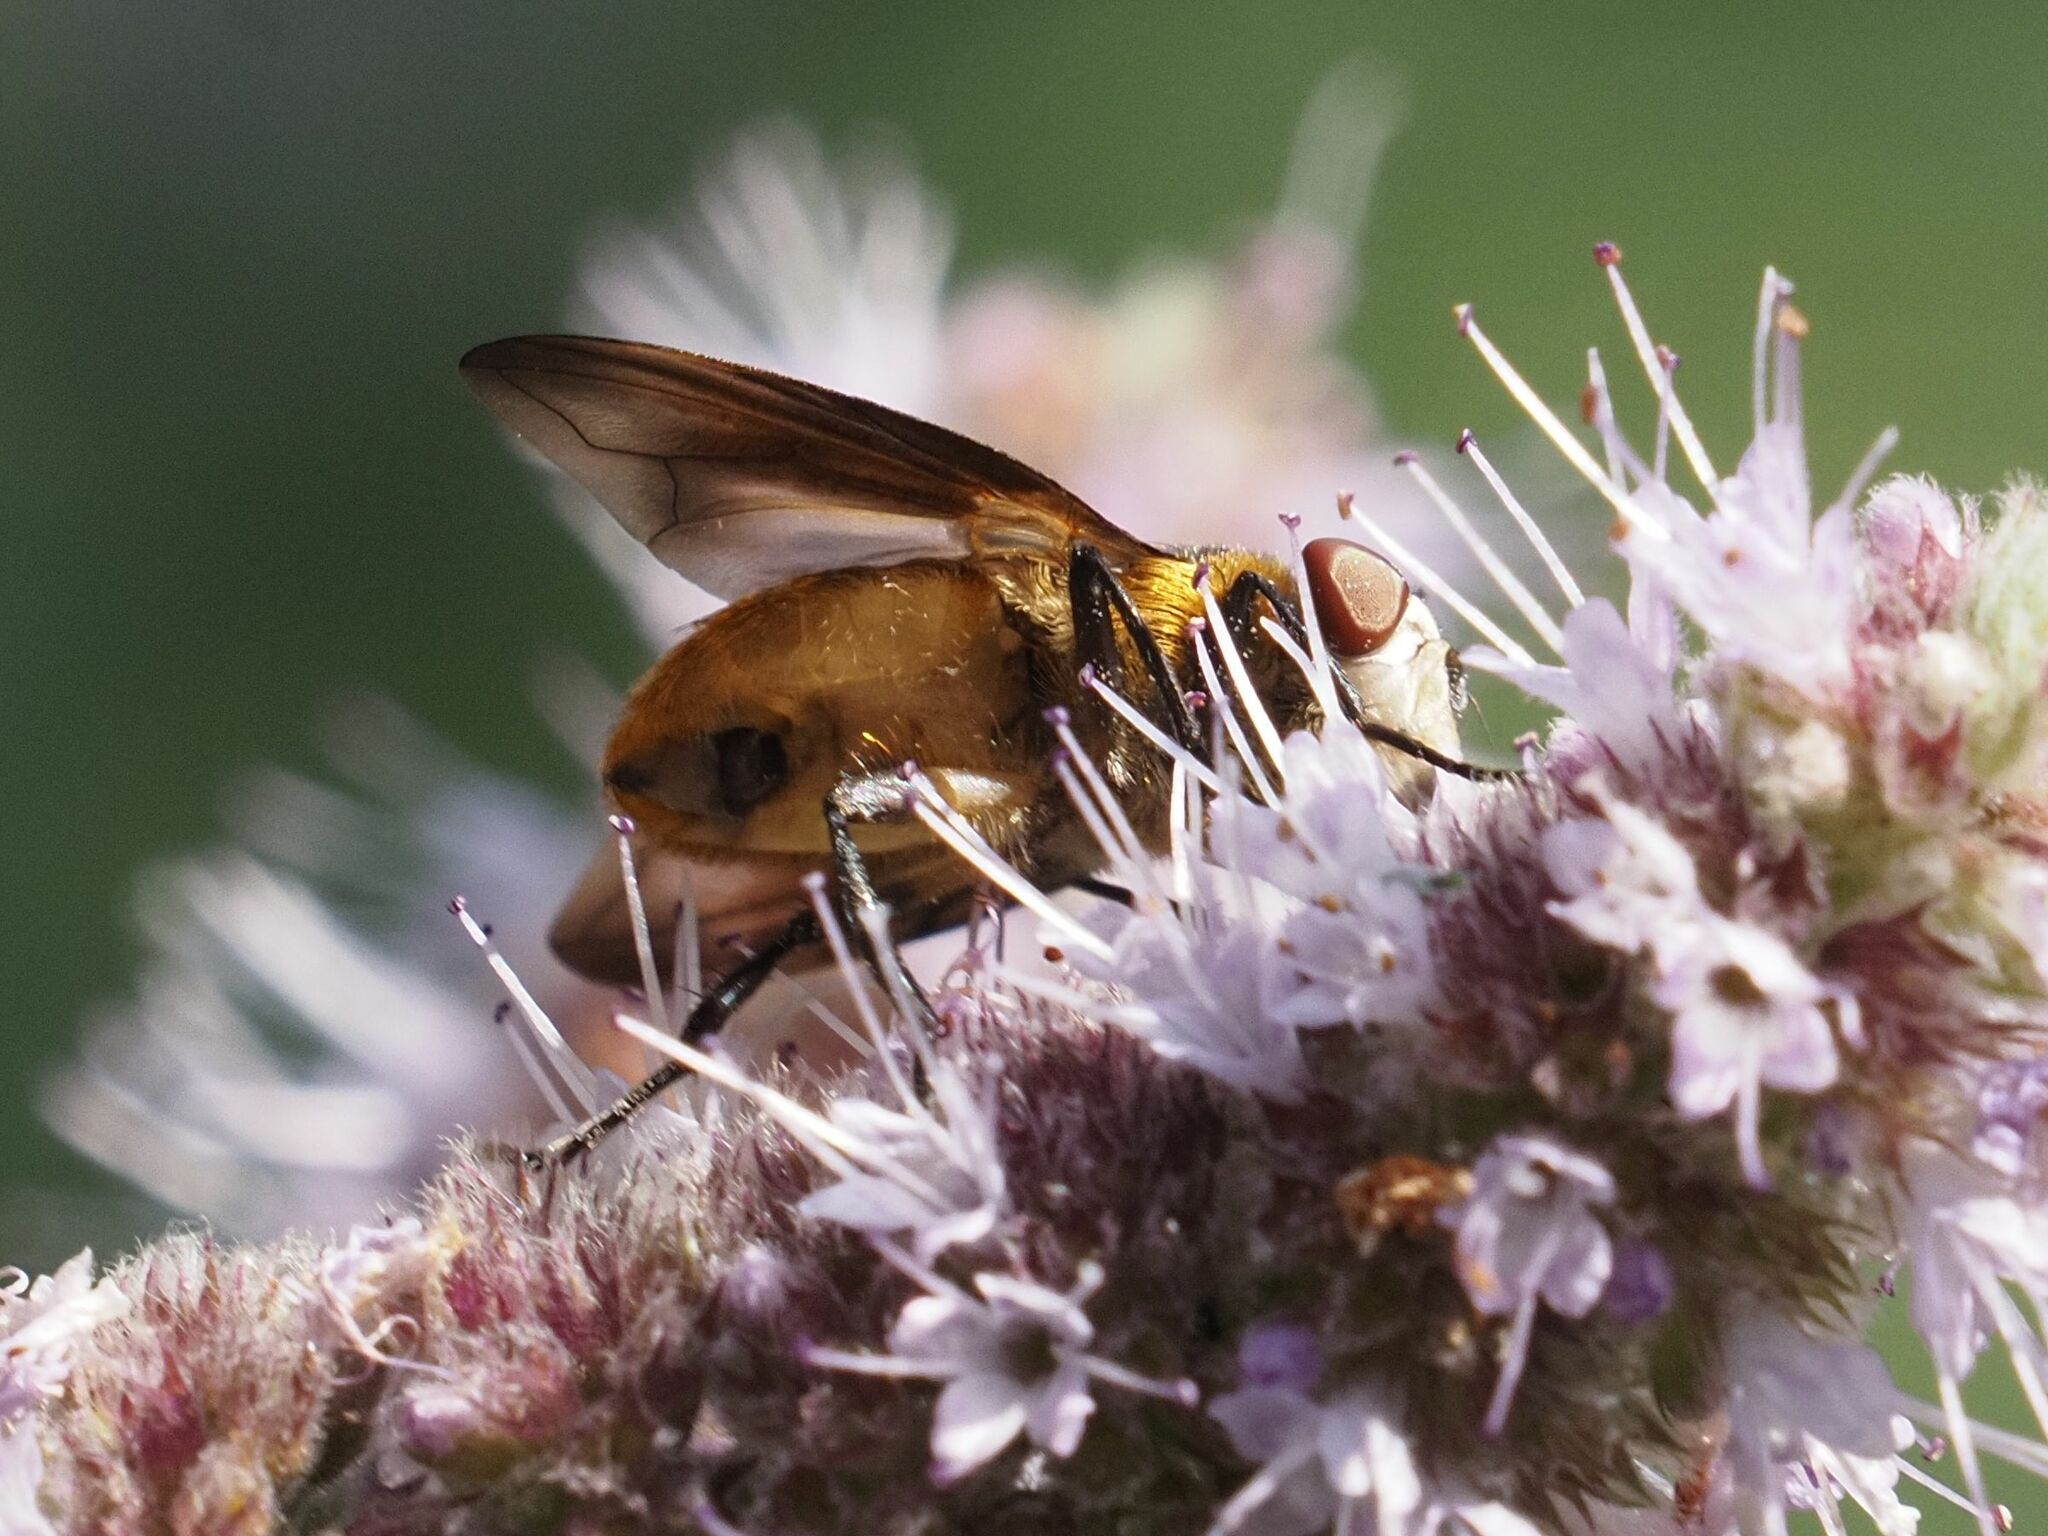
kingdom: Animalia
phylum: Arthropoda
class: Insecta
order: Diptera
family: Tachinidae
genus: Phasia
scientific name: Phasia hemiptera
